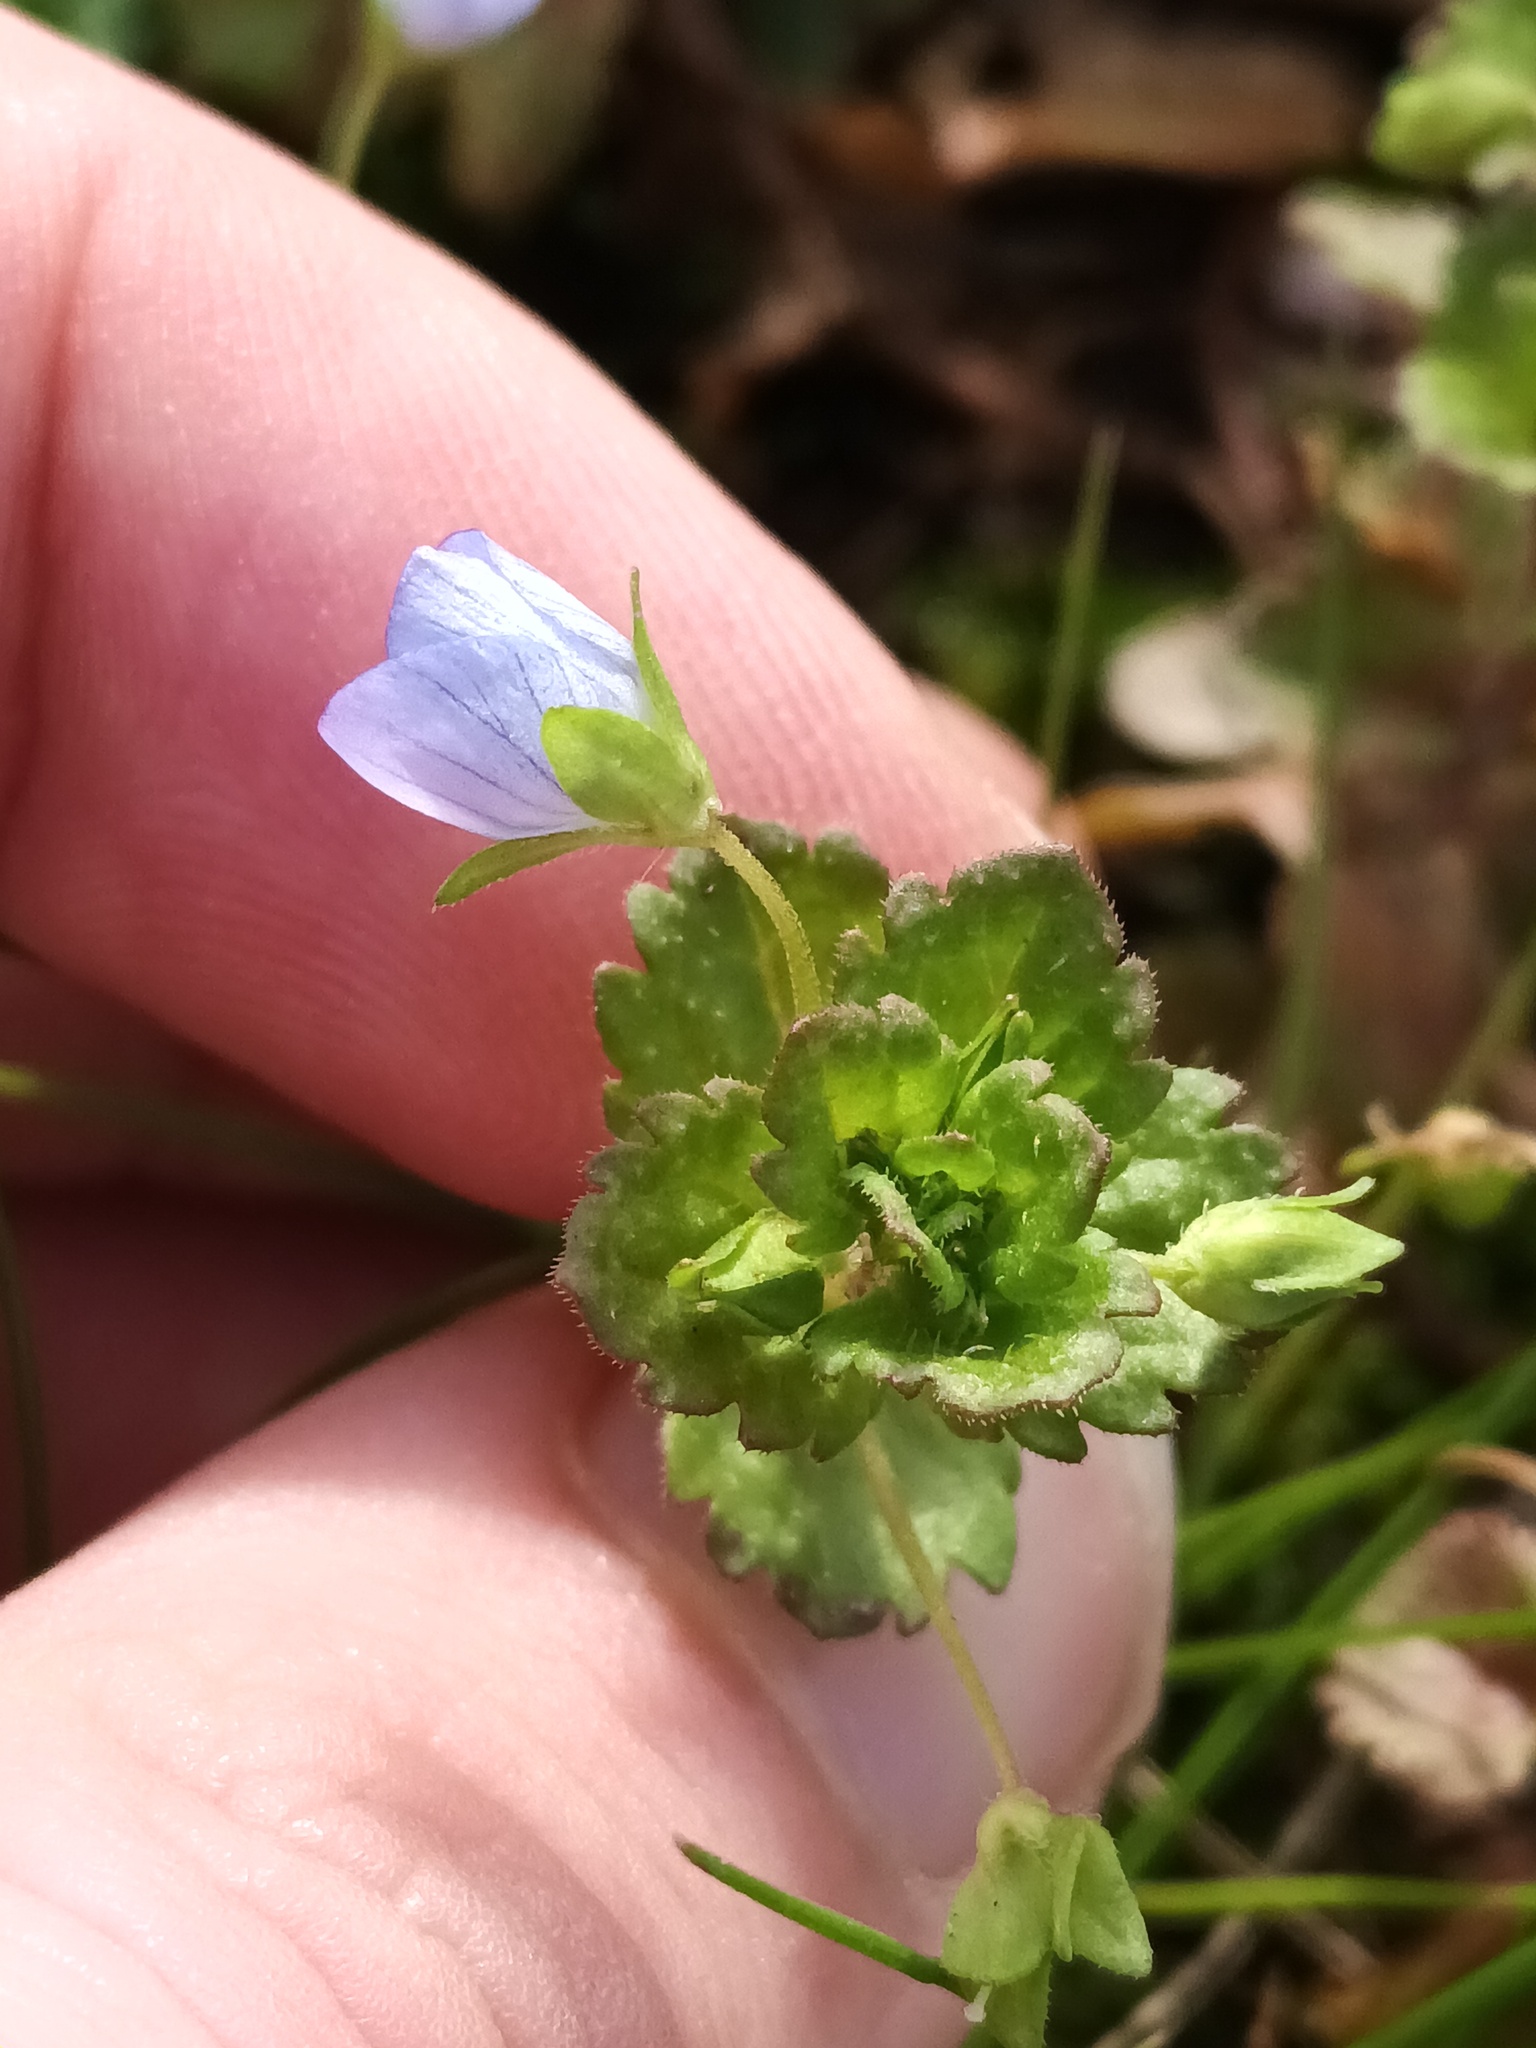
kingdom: Plantae
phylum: Tracheophyta
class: Magnoliopsida
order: Lamiales
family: Plantaginaceae
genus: Veronica
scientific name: Veronica persica
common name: Common field-speedwell
